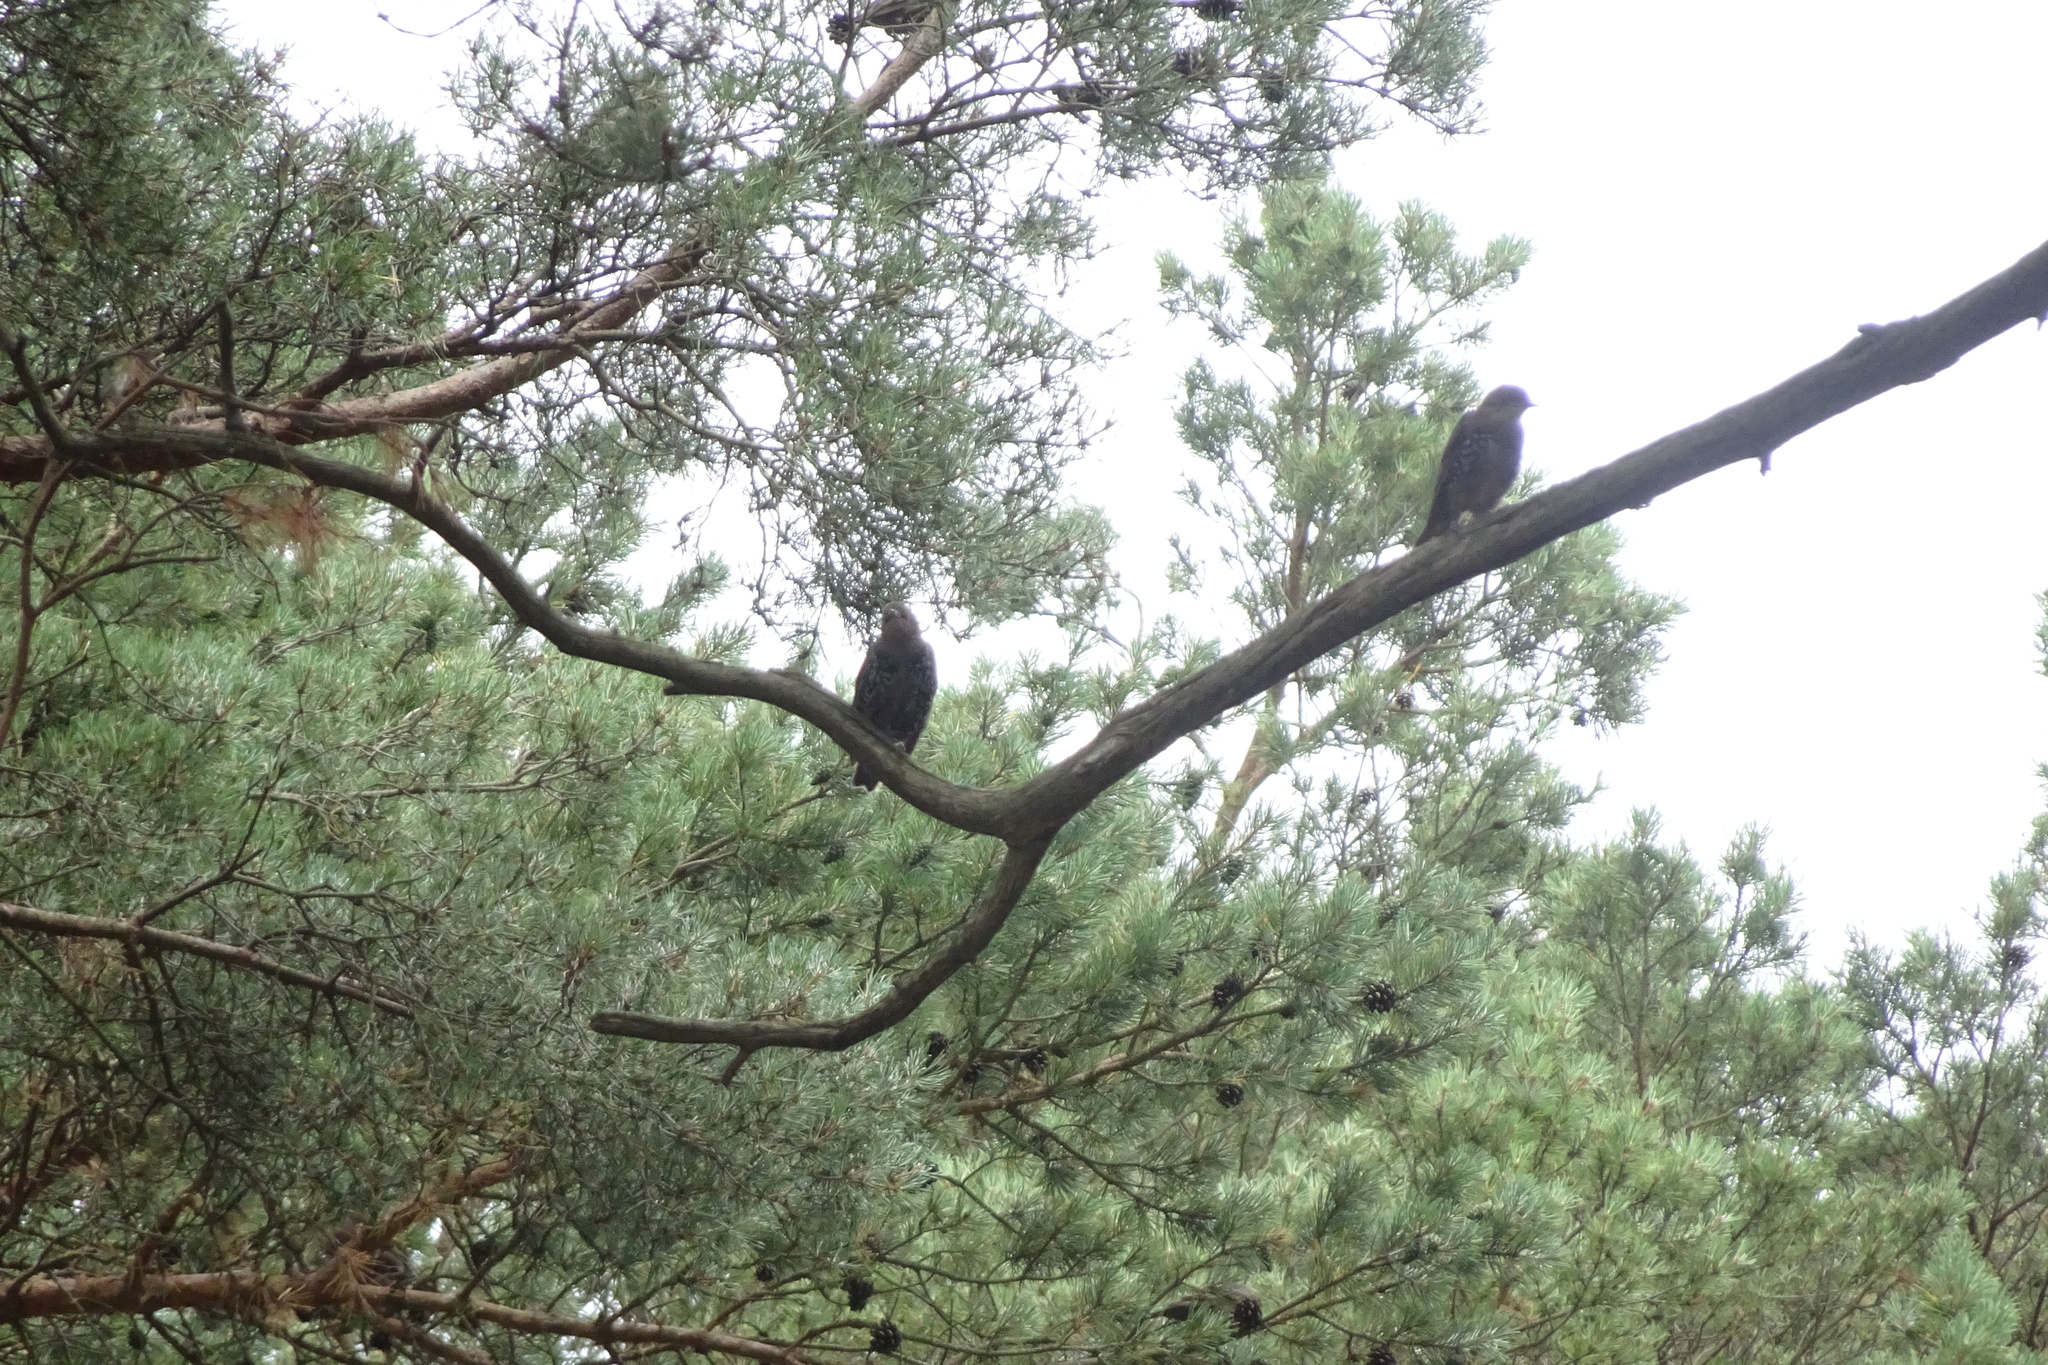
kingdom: Animalia
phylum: Chordata
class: Aves
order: Passeriformes
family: Sturnidae
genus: Sturnus
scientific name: Sturnus vulgaris
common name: Common starling
